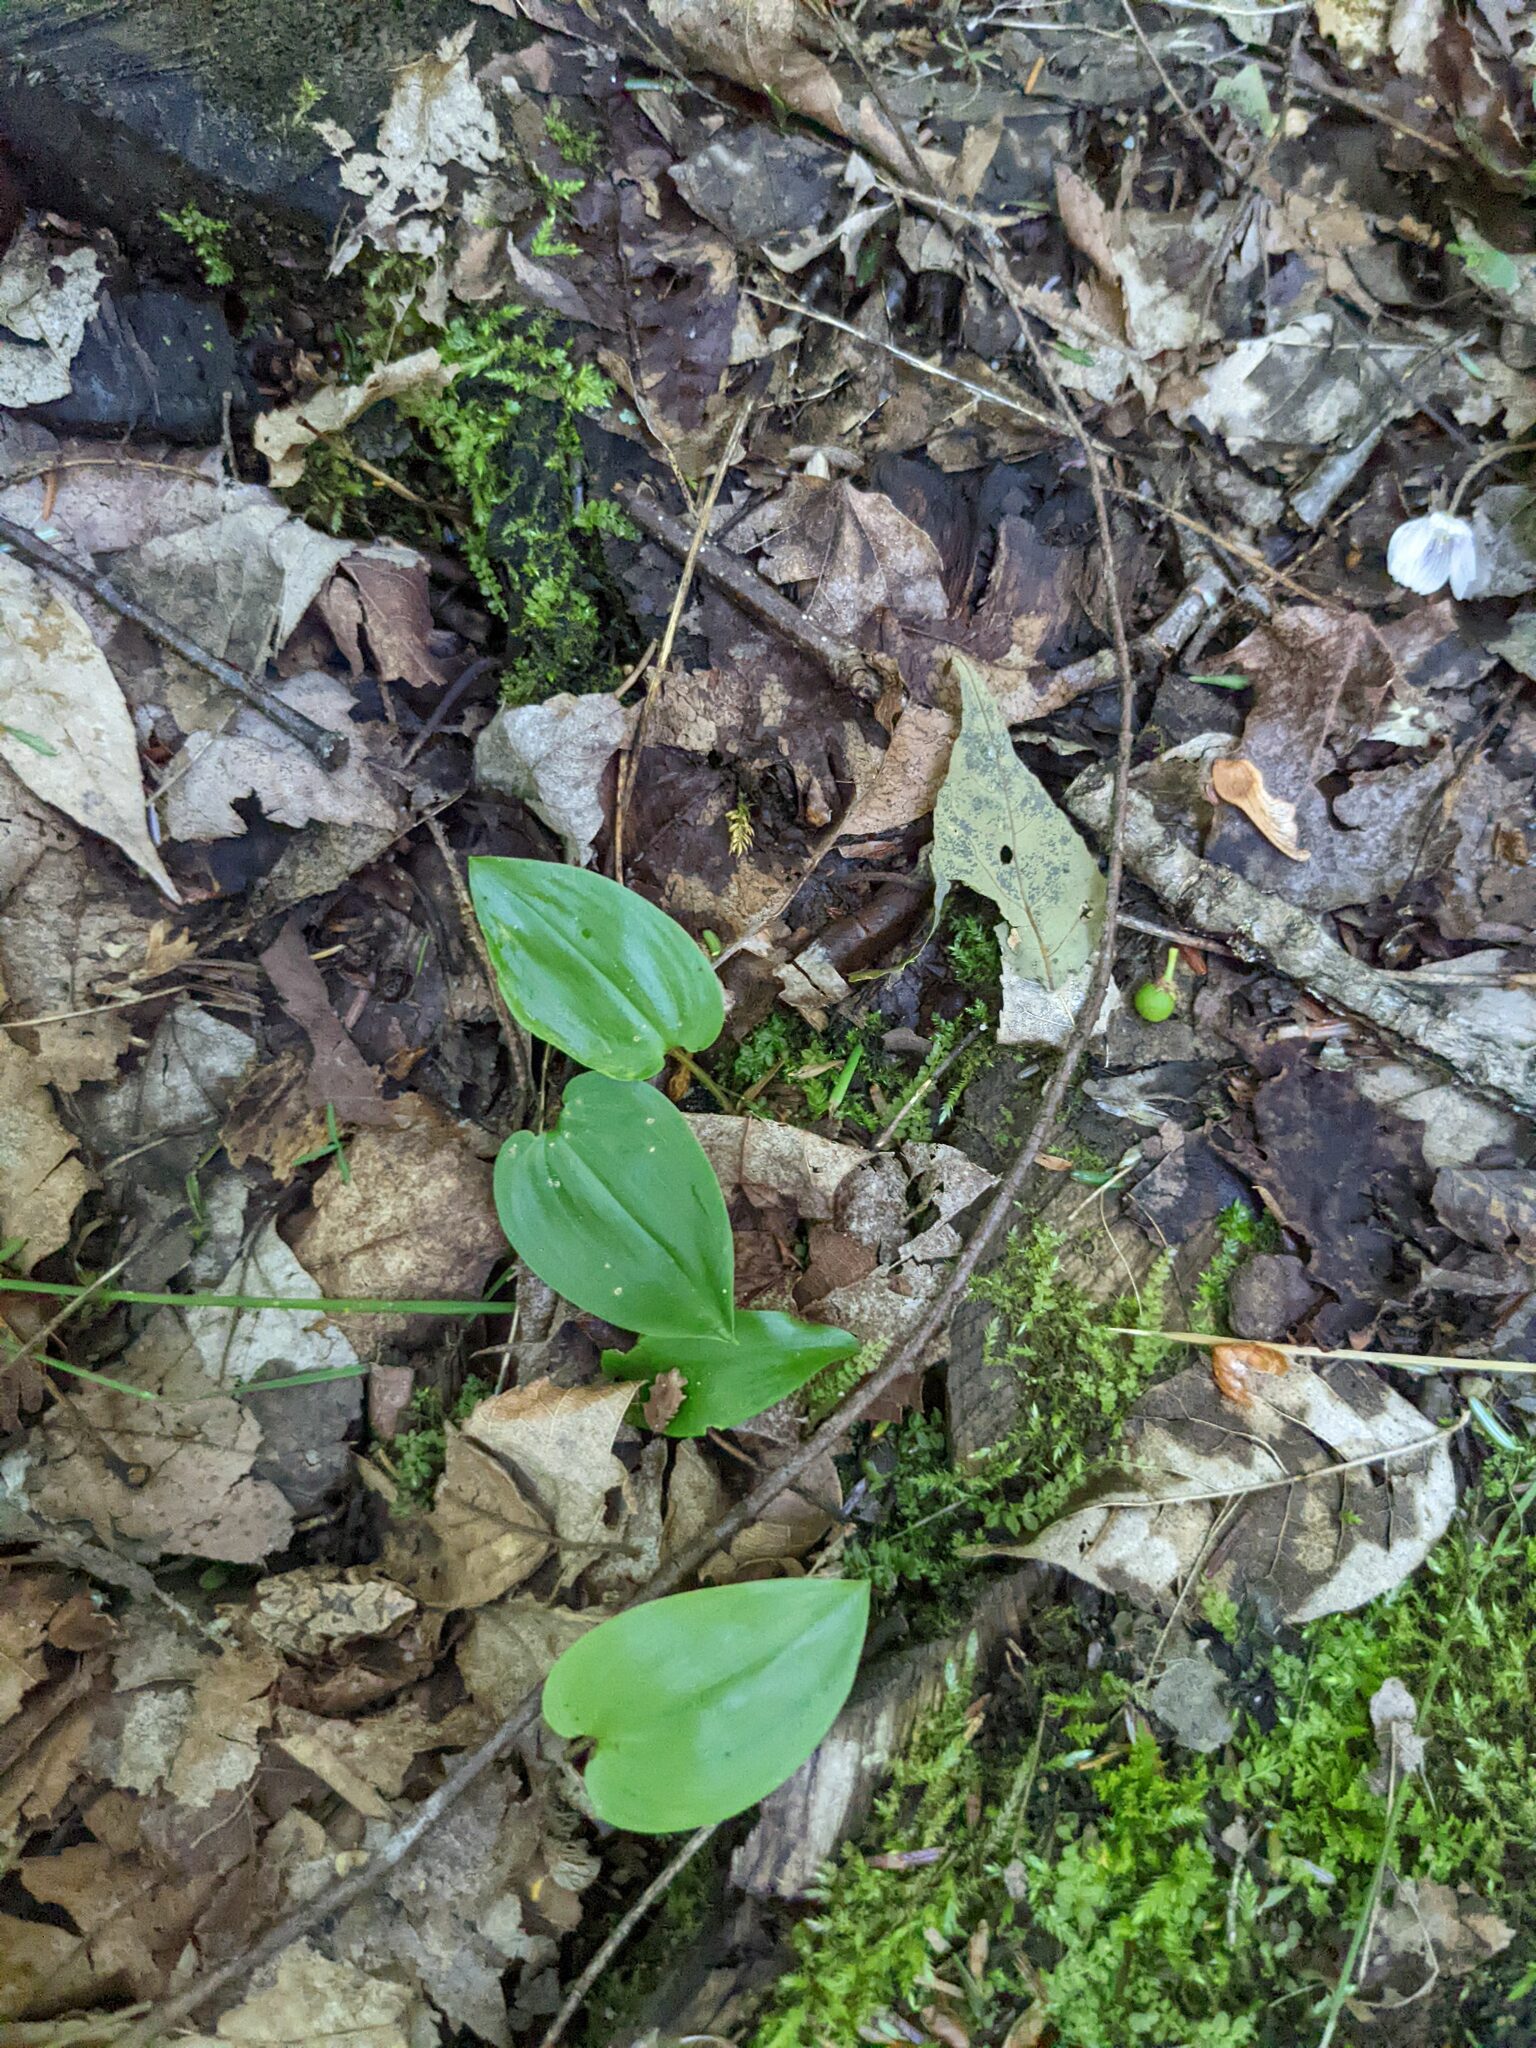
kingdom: Plantae
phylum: Tracheophyta
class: Liliopsida
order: Asparagales
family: Asparagaceae
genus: Maianthemum
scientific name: Maianthemum canadense
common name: False lily-of-the-valley
